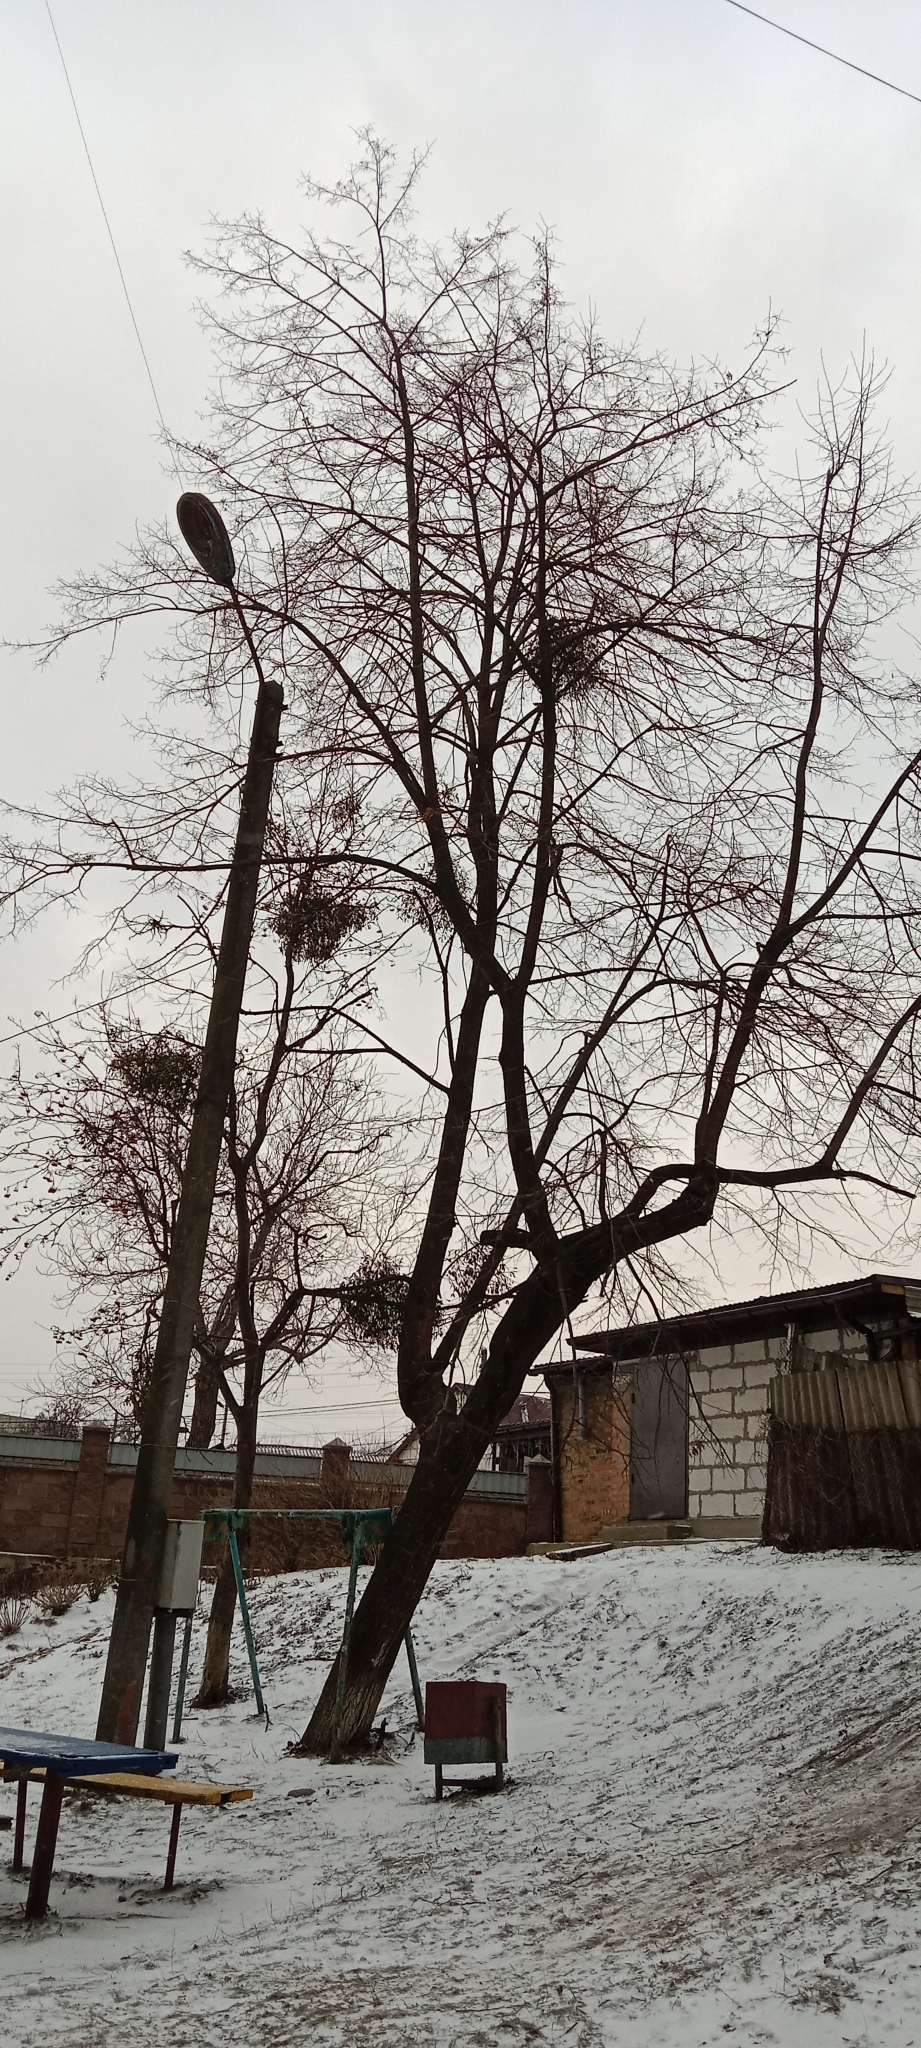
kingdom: Plantae
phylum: Tracheophyta
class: Magnoliopsida
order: Santalales
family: Viscaceae
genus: Viscum
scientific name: Viscum album
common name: Mistletoe
